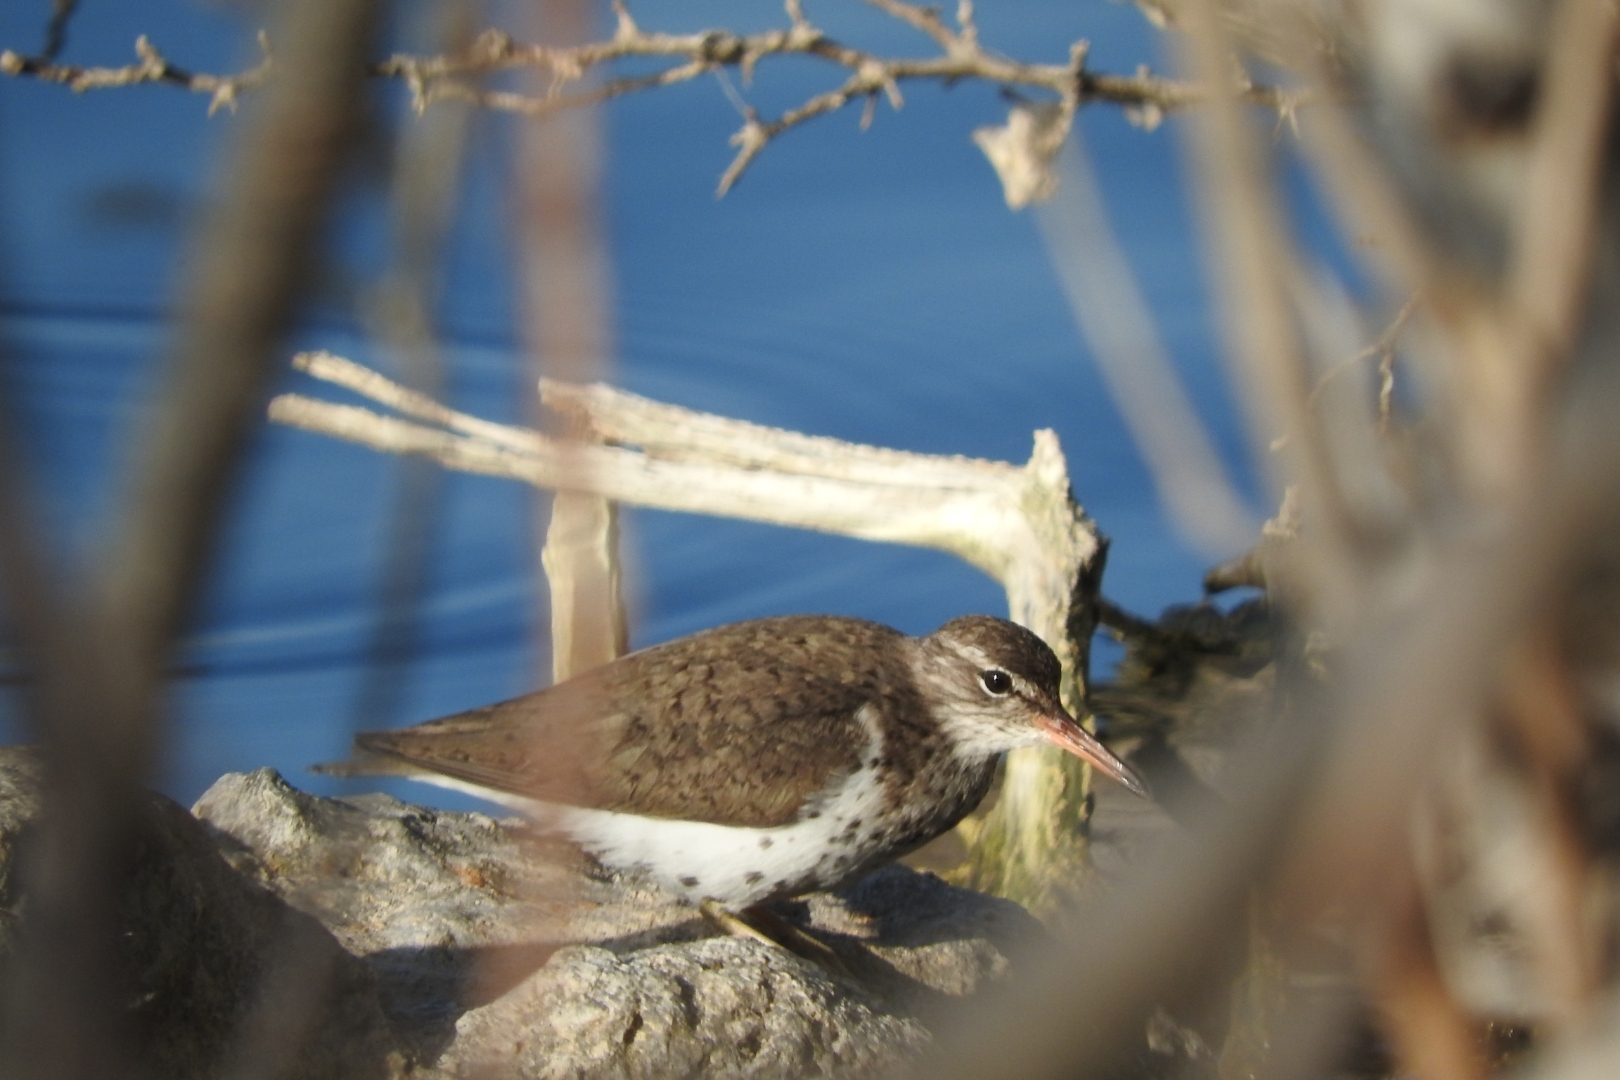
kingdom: Animalia
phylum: Chordata
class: Aves
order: Charadriiformes
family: Scolopacidae
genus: Actitis
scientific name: Actitis macularius
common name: Spotted sandpiper
